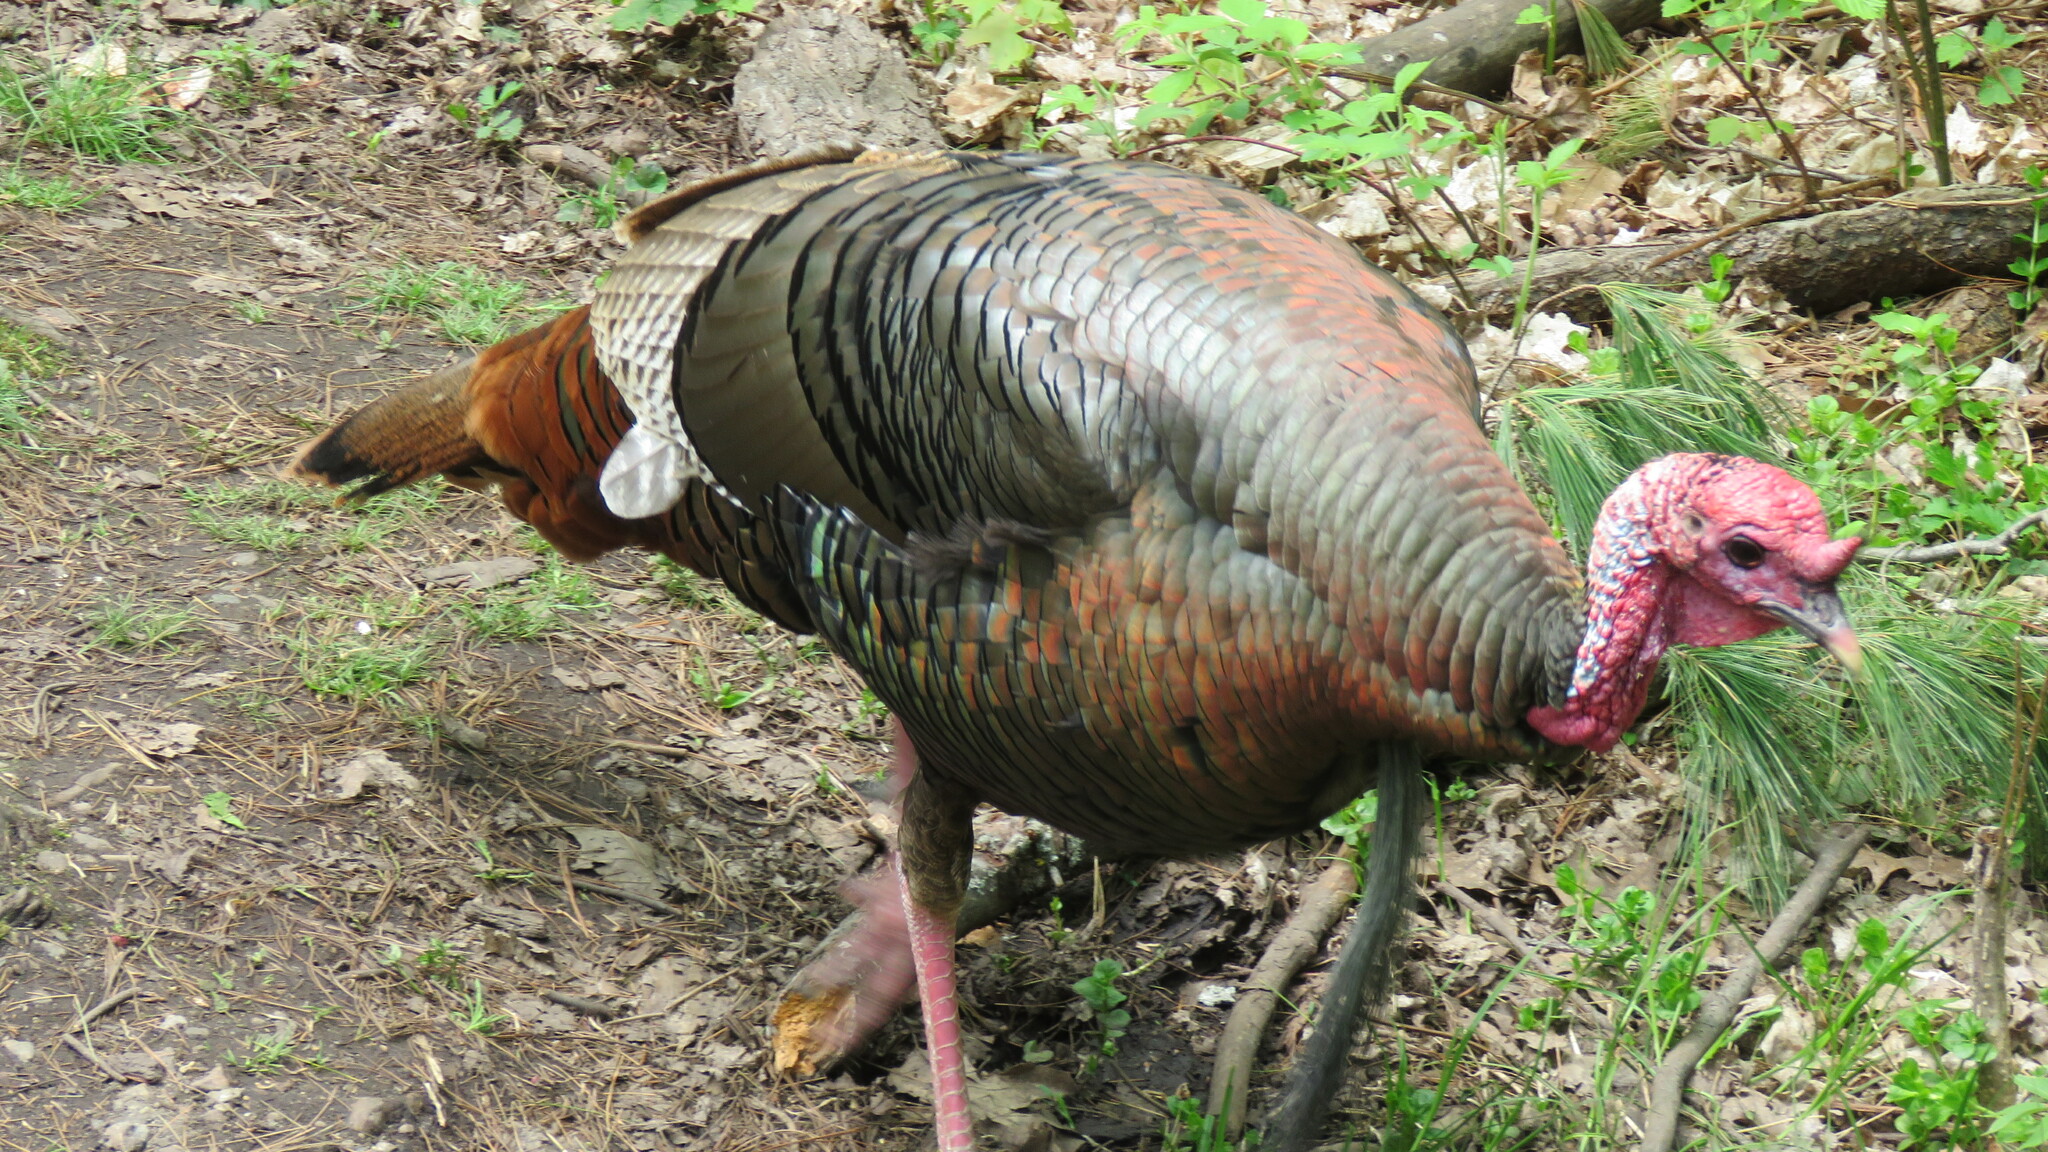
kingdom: Animalia
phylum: Chordata
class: Aves
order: Galliformes
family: Phasianidae
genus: Meleagris
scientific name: Meleagris gallopavo
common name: Wild turkey
